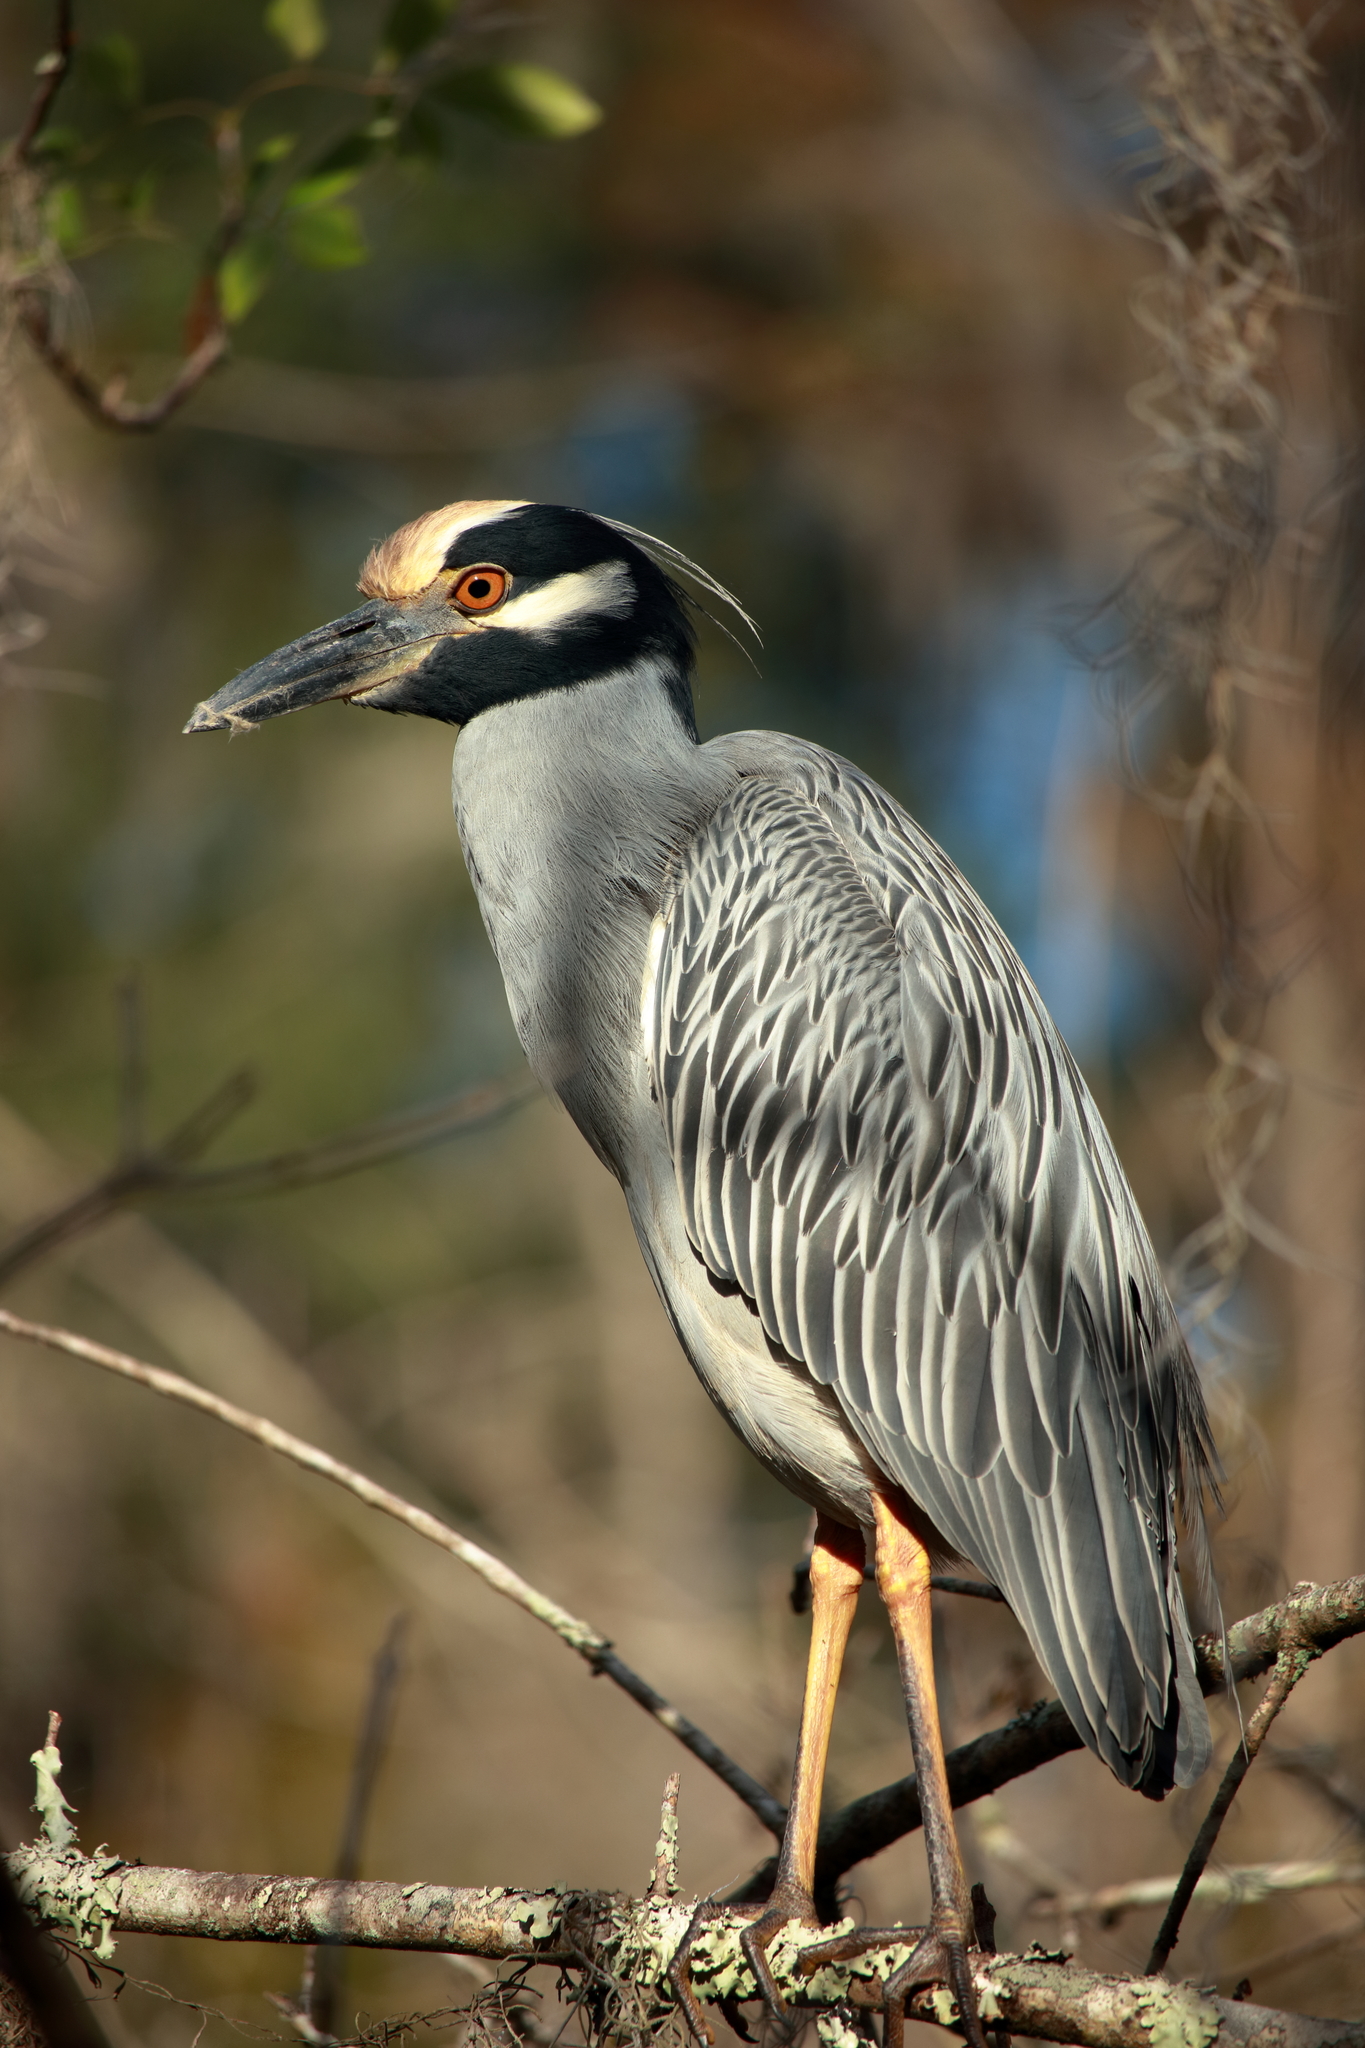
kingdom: Animalia
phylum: Chordata
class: Aves
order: Pelecaniformes
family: Ardeidae
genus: Nyctanassa
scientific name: Nyctanassa violacea
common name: Yellow-crowned night heron
